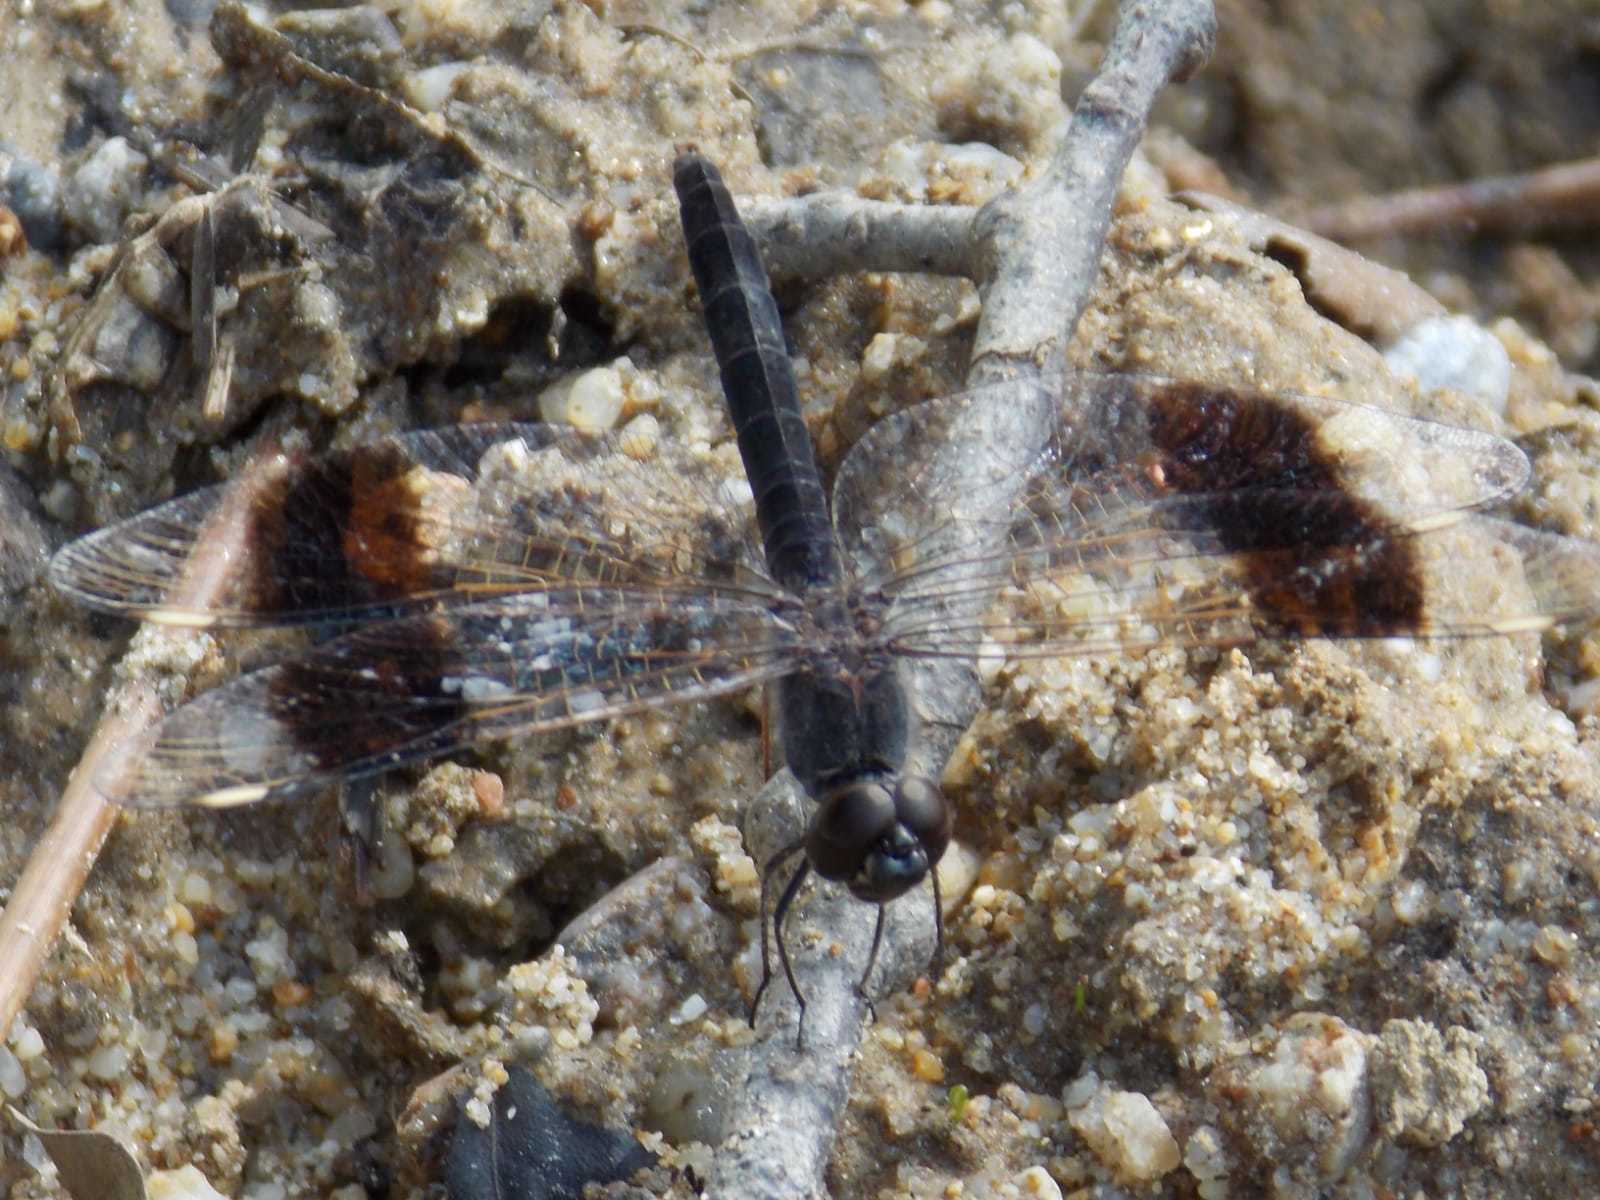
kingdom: Animalia
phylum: Arthropoda
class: Insecta
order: Odonata
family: Libellulidae
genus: Brachythemis
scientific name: Brachythemis impartita
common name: Banded groundling
